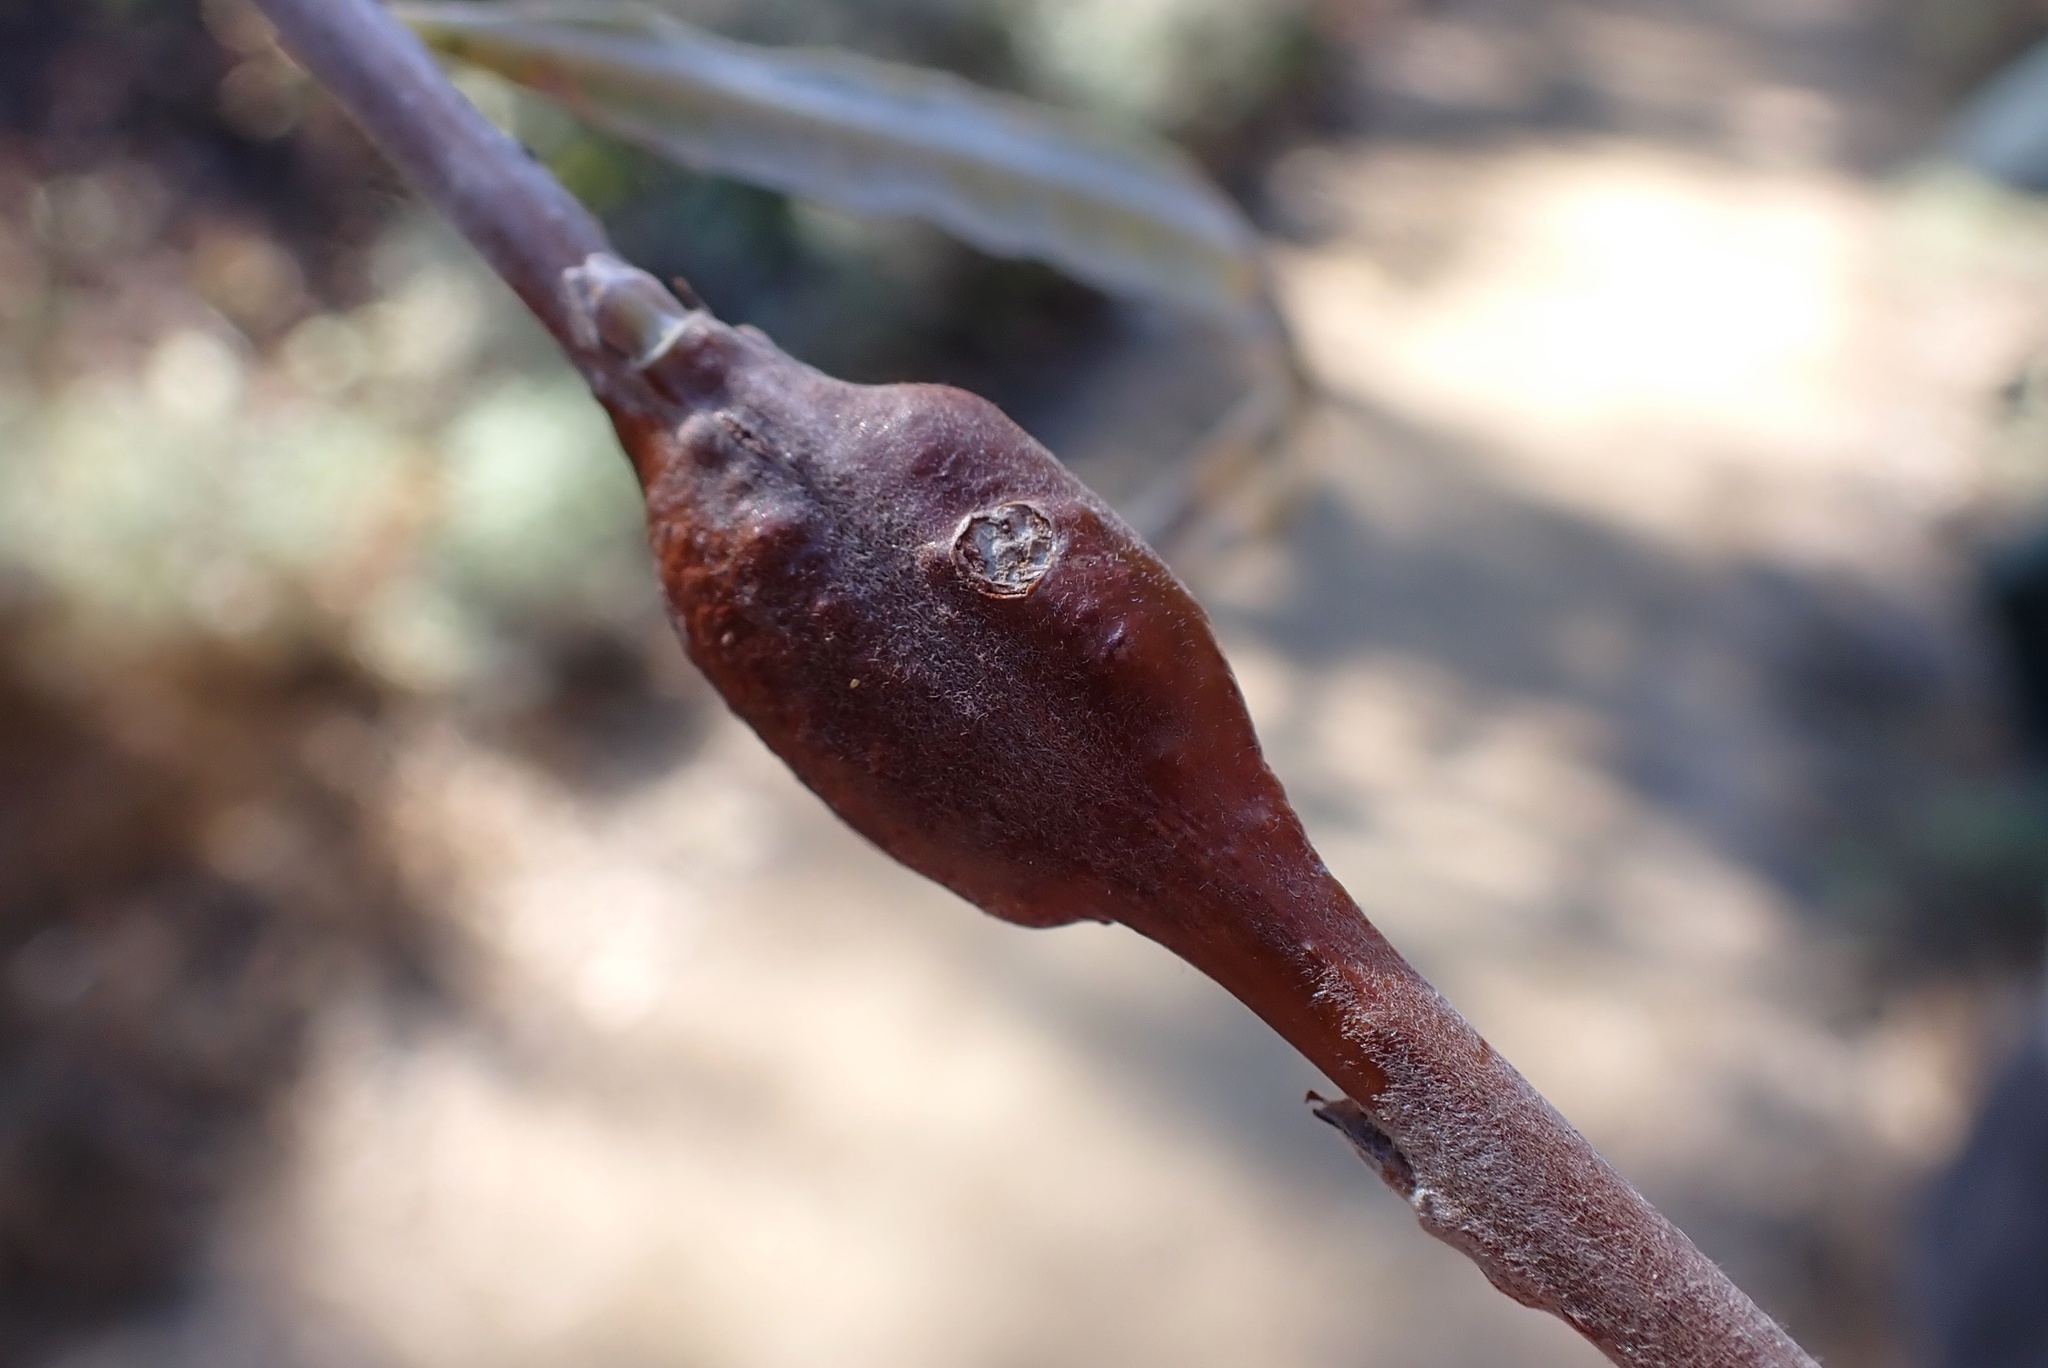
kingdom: Animalia
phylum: Arthropoda
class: Insecta
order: Hymenoptera
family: Tenthredinidae
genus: Euura
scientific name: Euura
